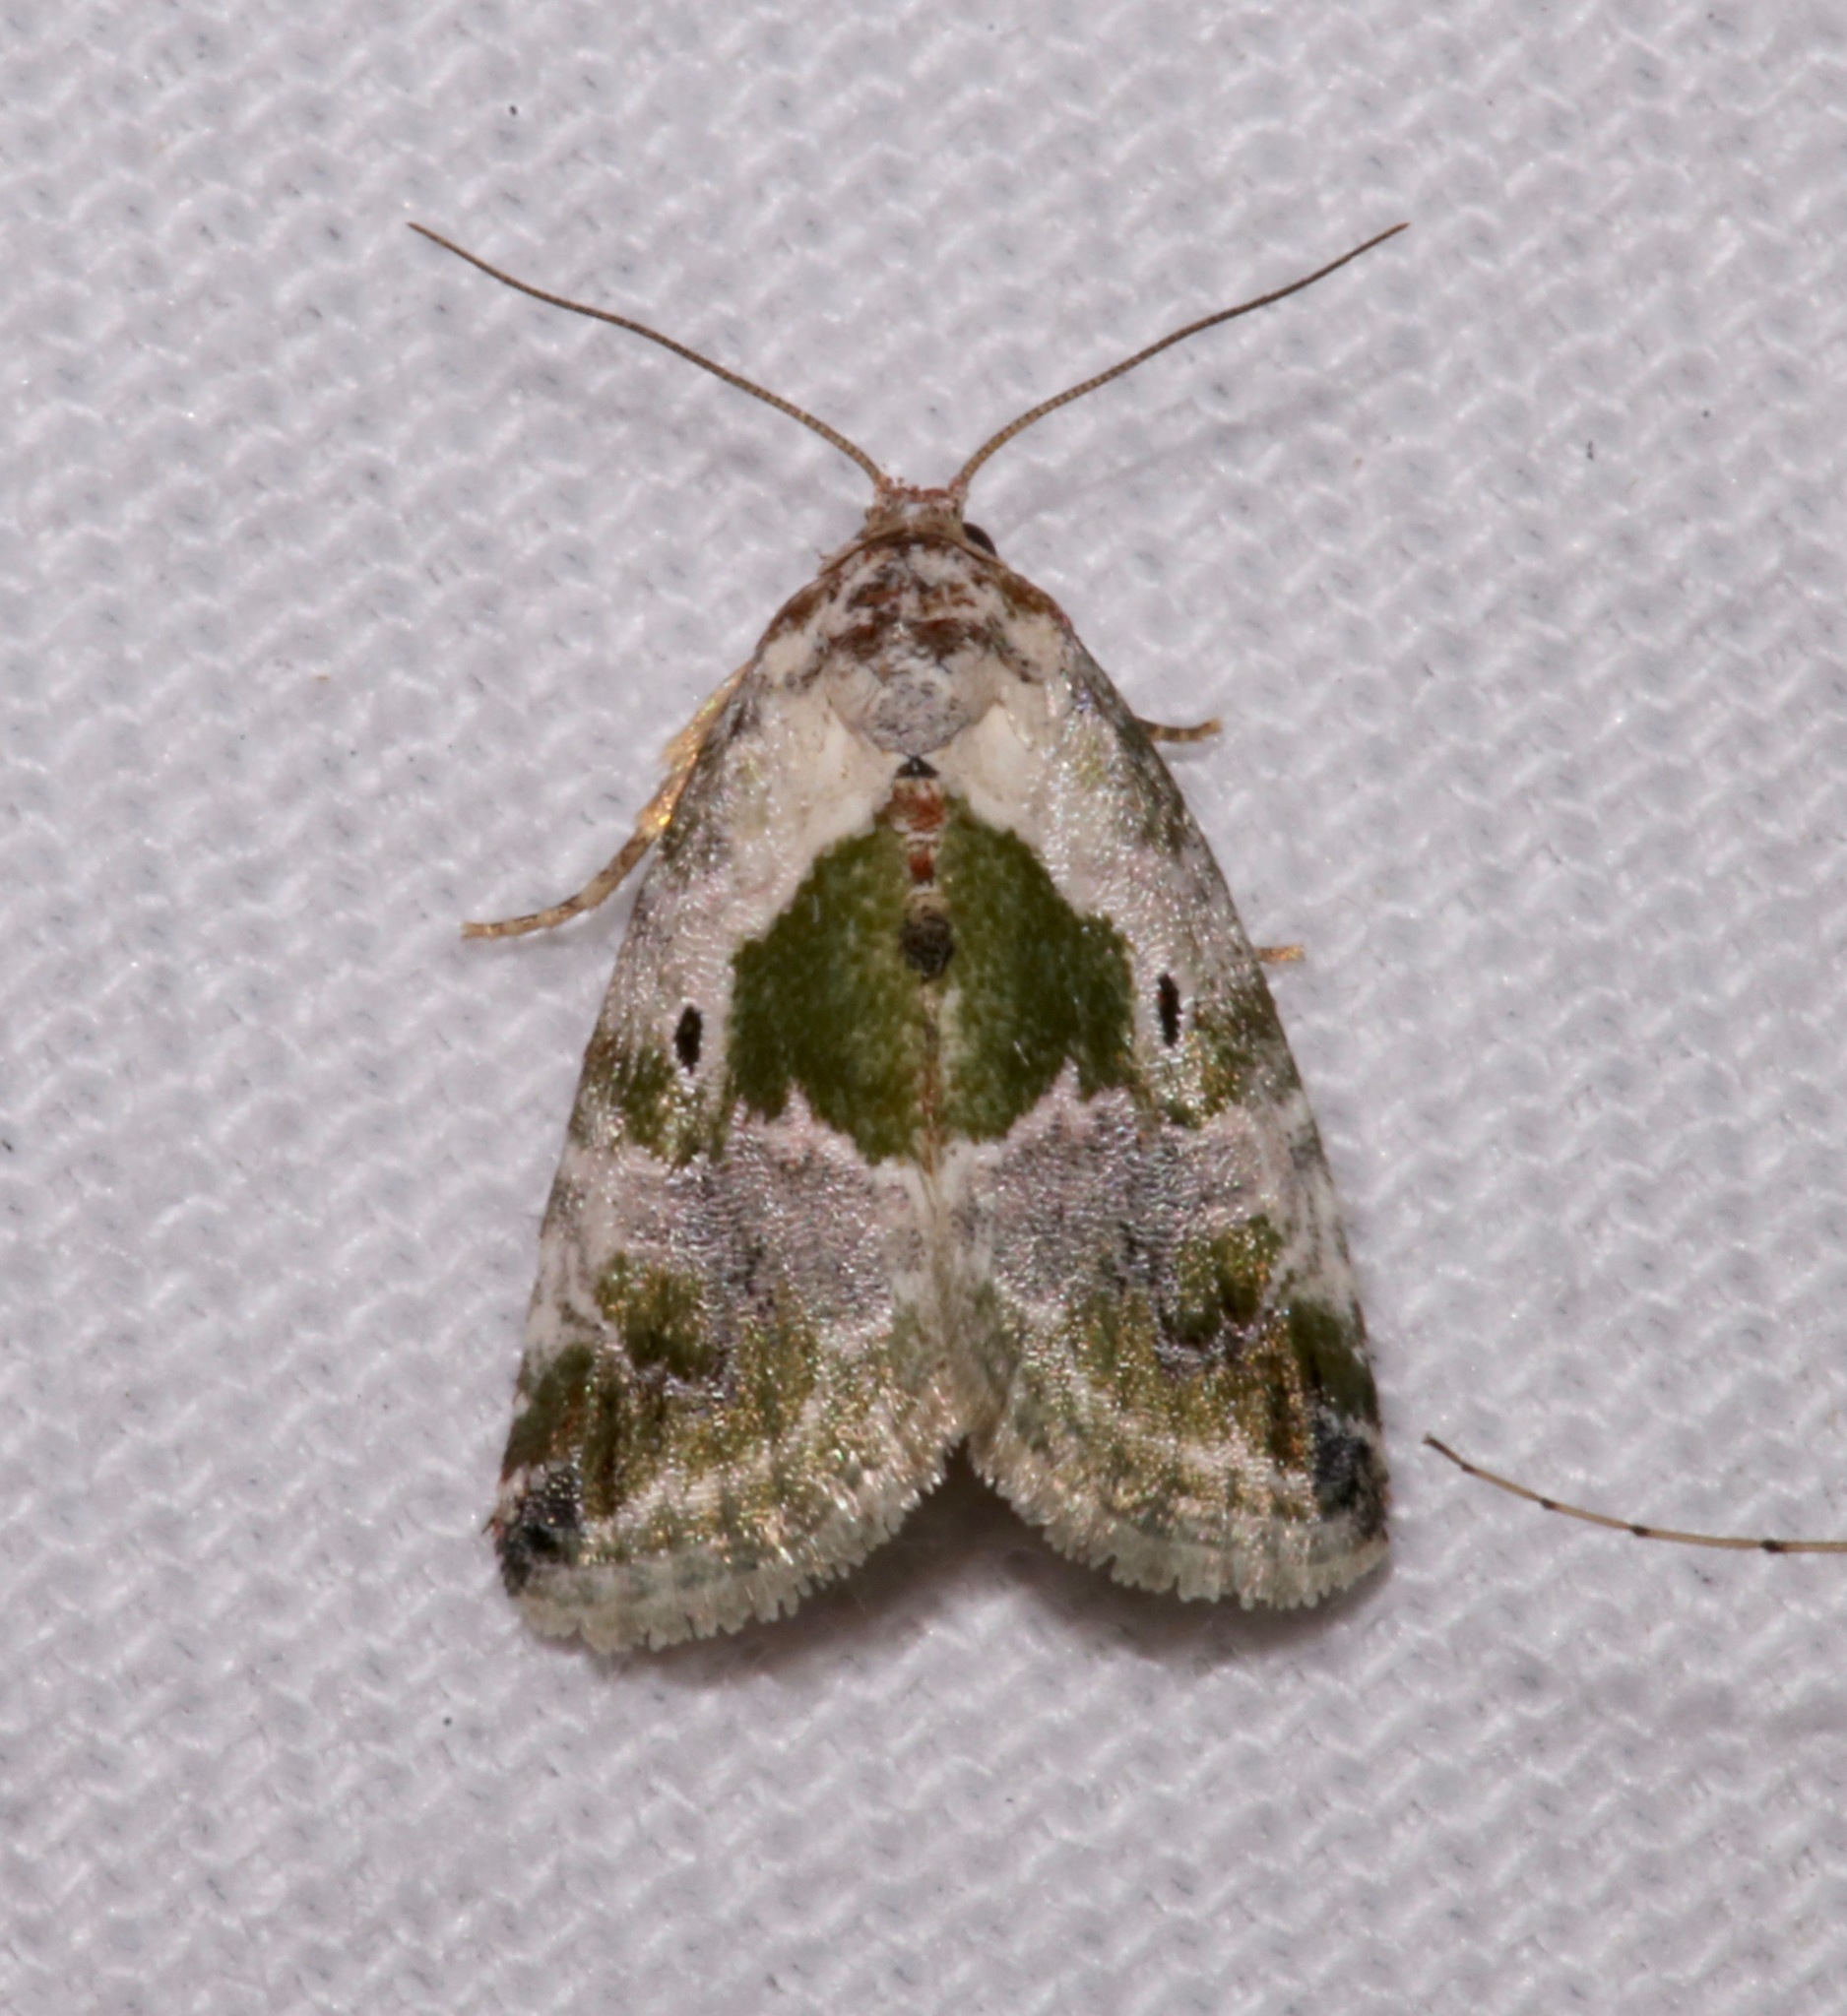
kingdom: Animalia
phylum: Arthropoda
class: Insecta
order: Lepidoptera
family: Noctuidae
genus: Maliattha
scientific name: Maliattha synochitis
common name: Black-dotted glyph
